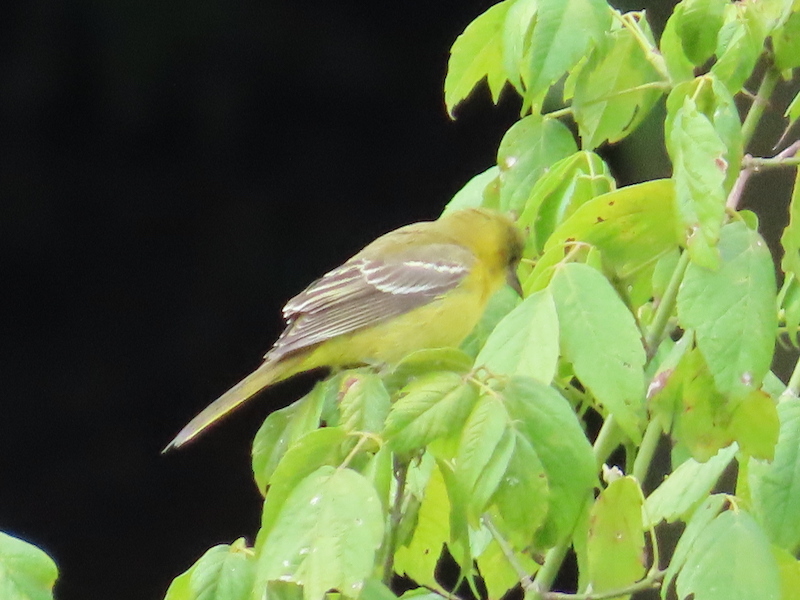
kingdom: Animalia
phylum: Chordata
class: Aves
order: Passeriformes
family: Icteridae
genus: Icterus
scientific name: Icterus spurius
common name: Orchard oriole
